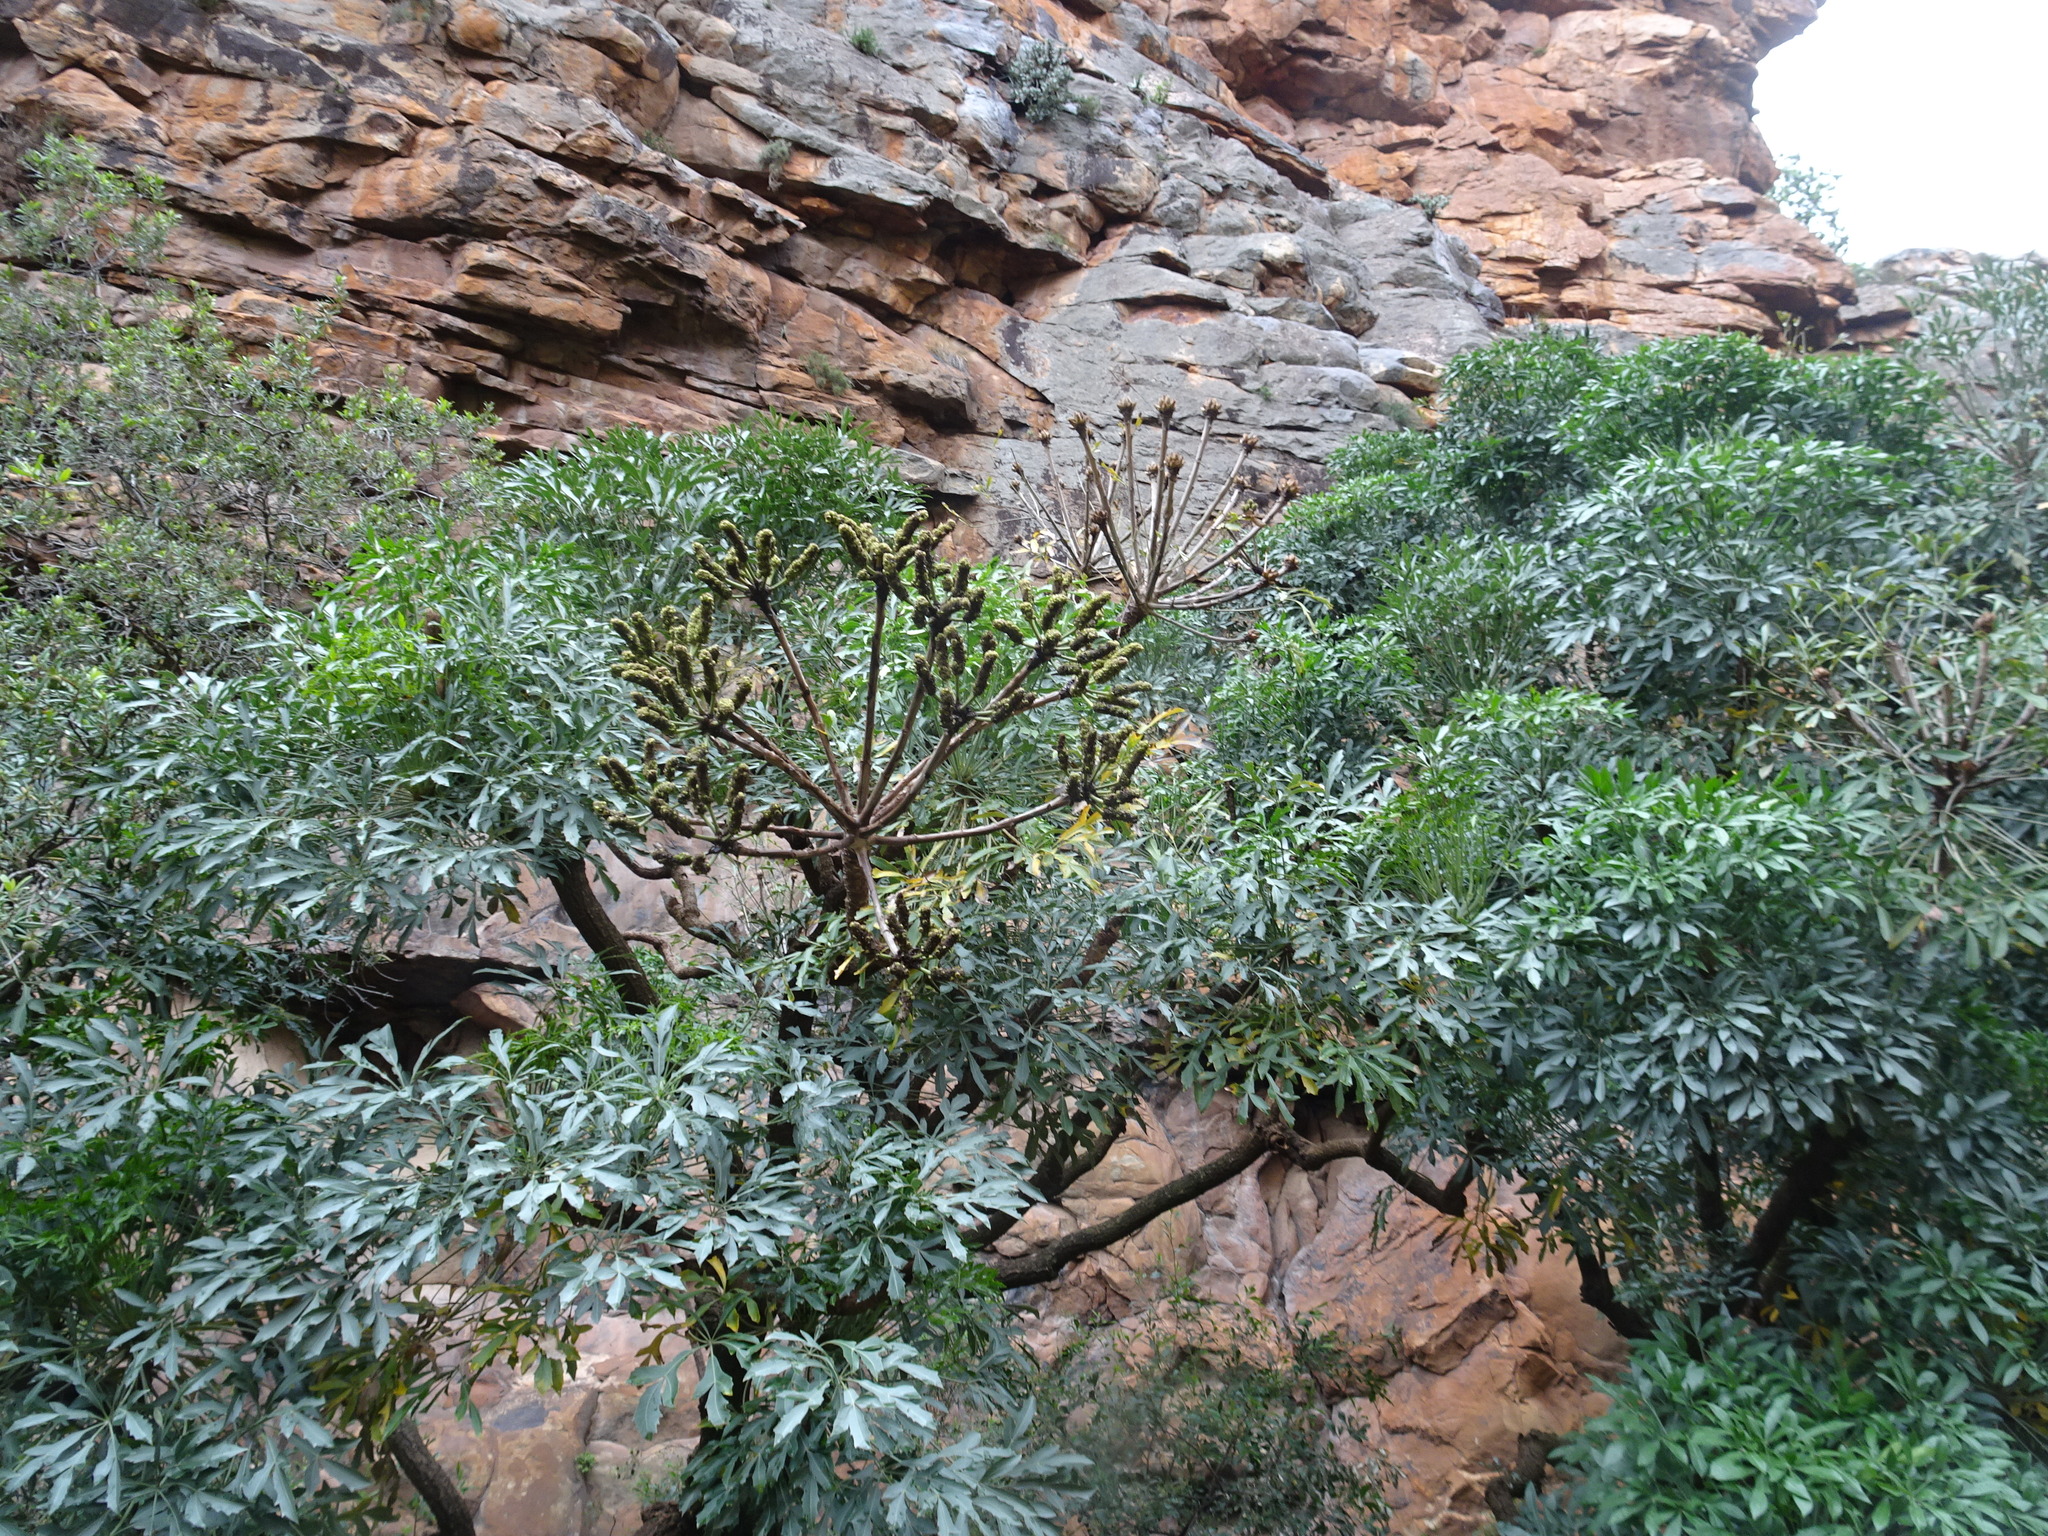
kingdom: Plantae
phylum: Tracheophyta
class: Magnoliopsida
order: Apiales
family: Araliaceae
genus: Cussonia
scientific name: Cussonia spicata
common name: Common cabbagetree
